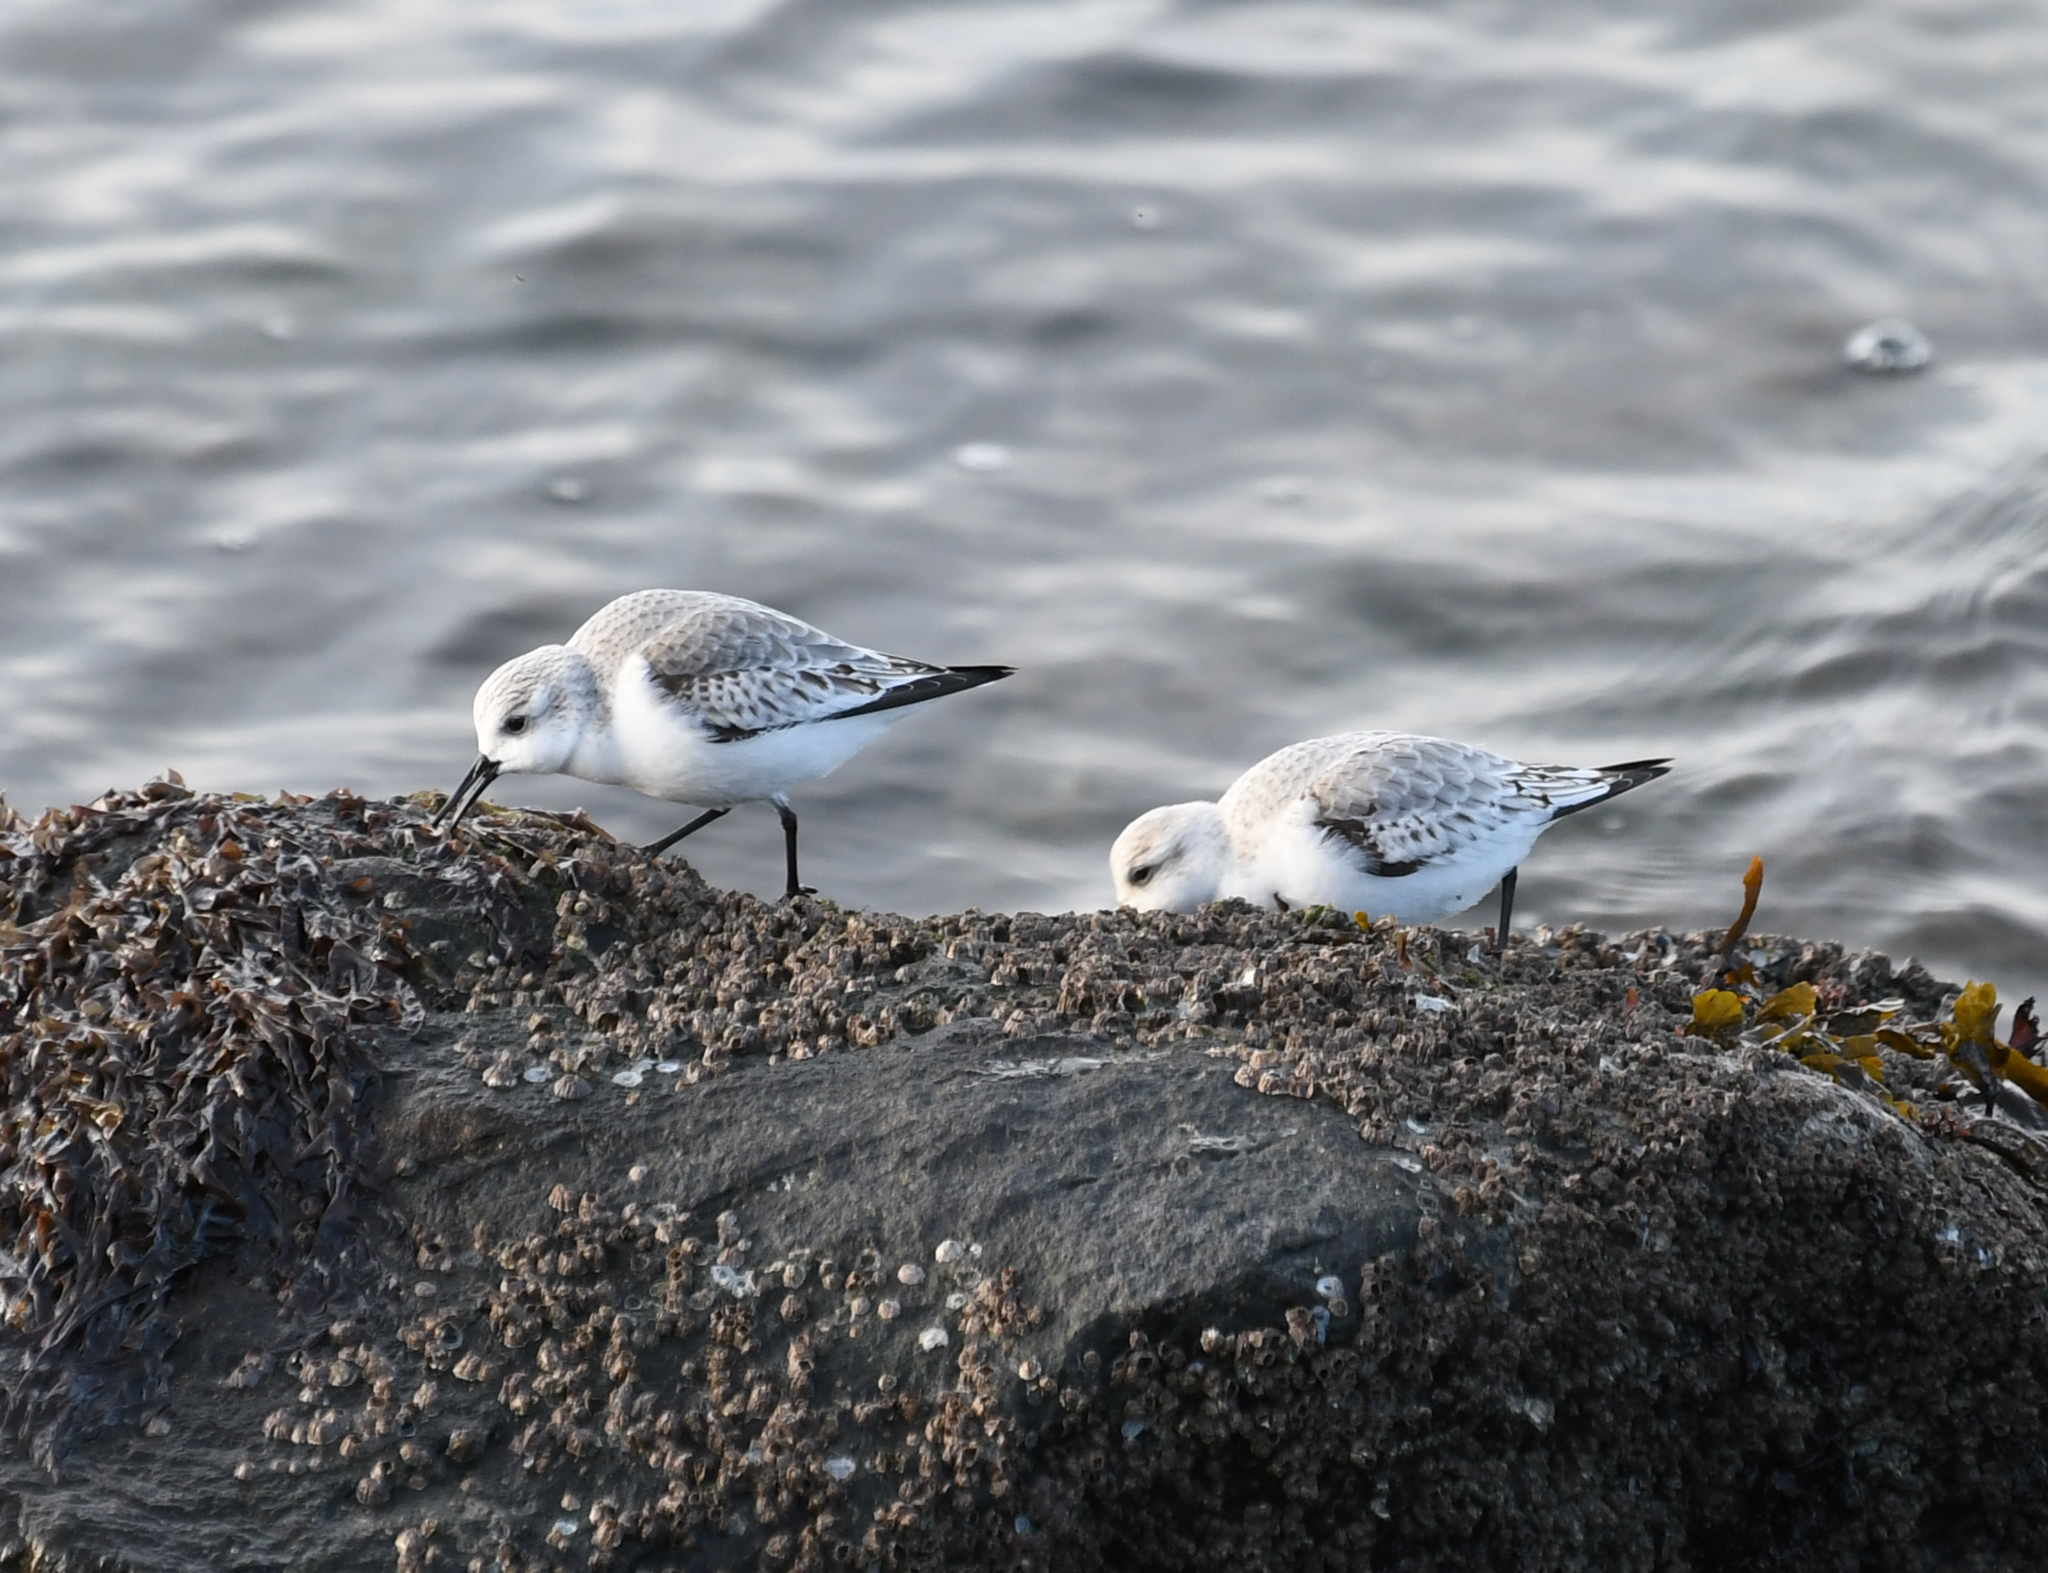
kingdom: Animalia
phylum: Chordata
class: Aves
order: Charadriiformes
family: Scolopacidae
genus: Calidris
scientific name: Calidris alba
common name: Sanderling
